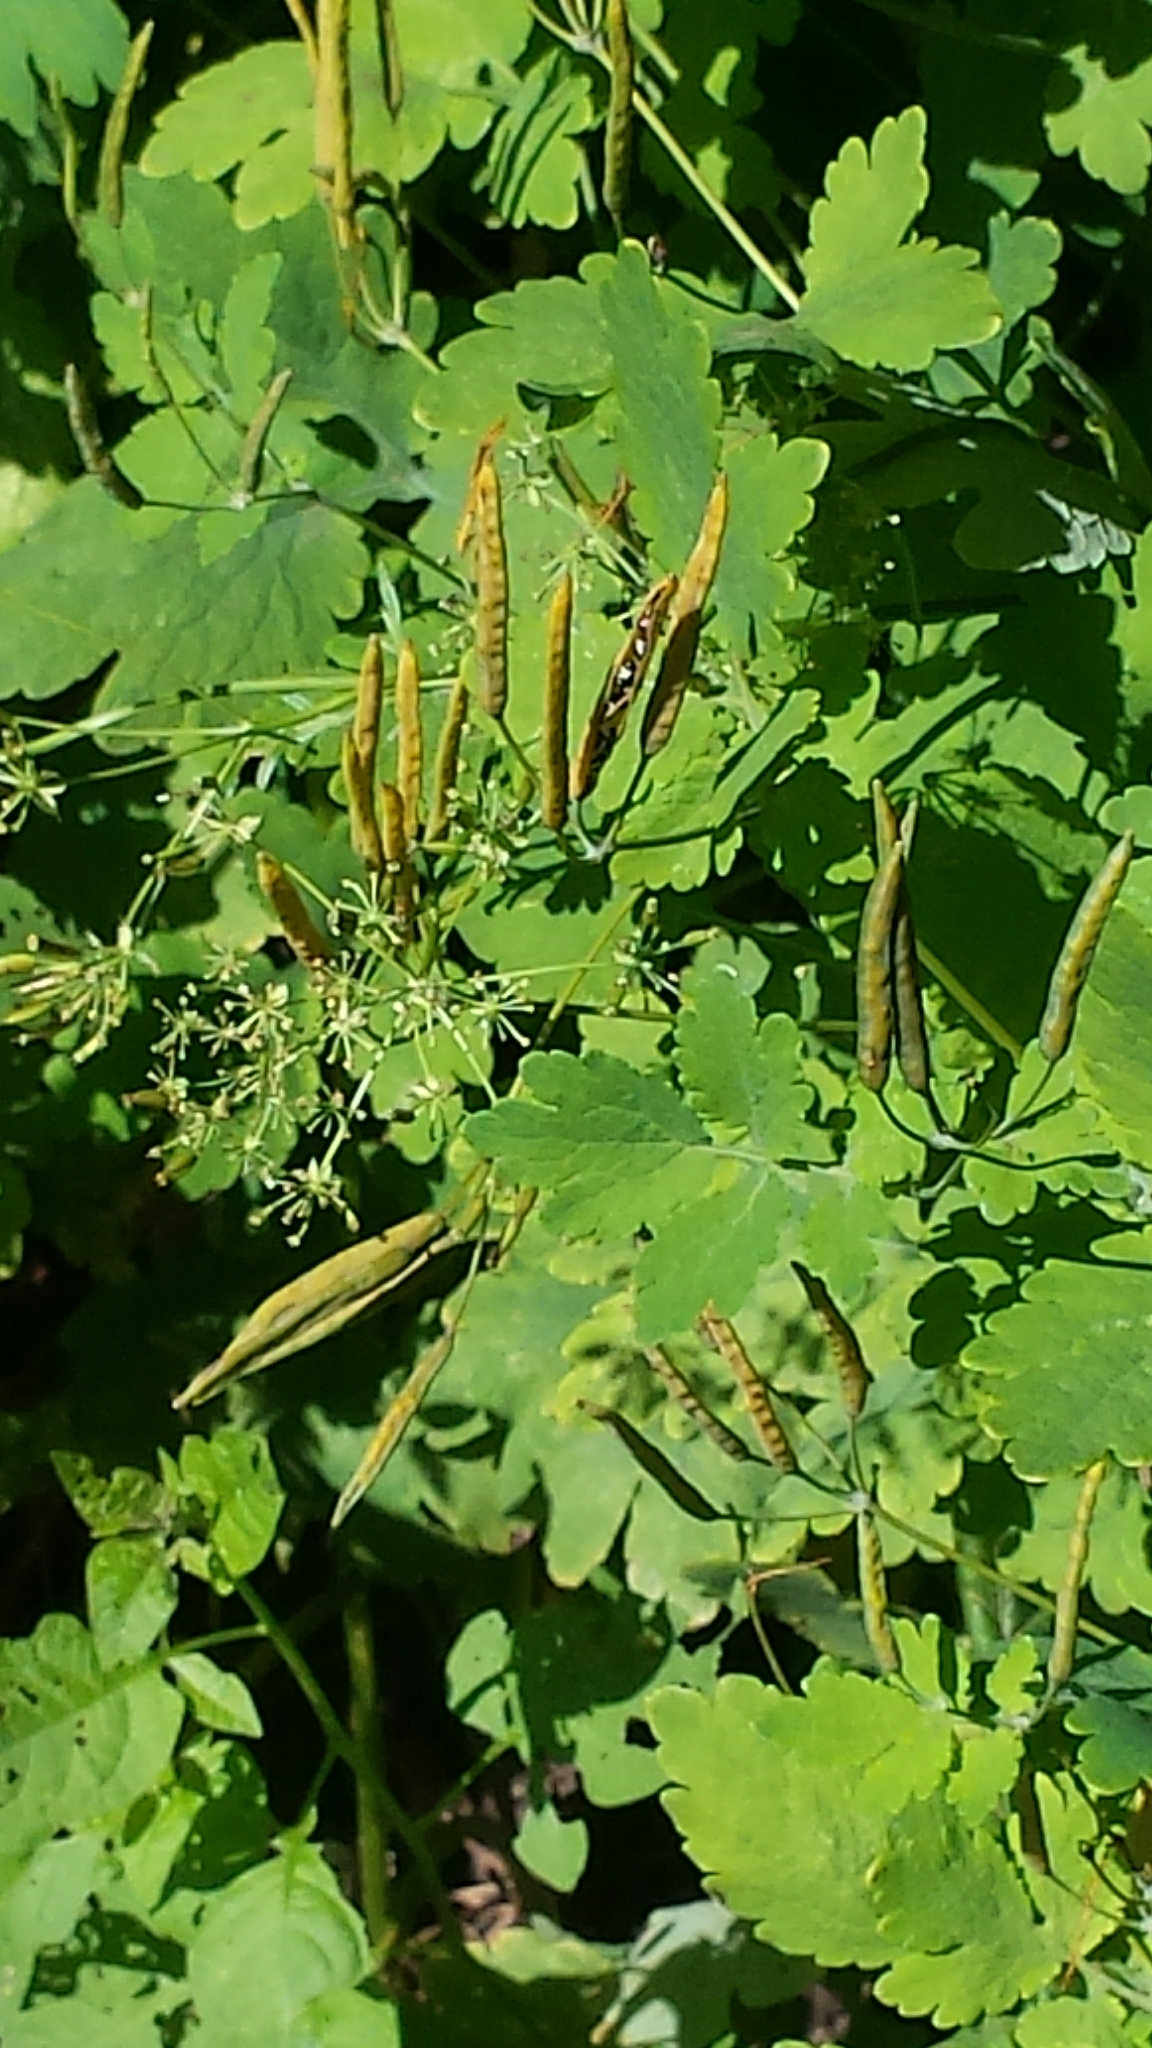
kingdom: Plantae
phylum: Tracheophyta
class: Magnoliopsida
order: Ranunculales
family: Papaveraceae
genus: Chelidonium
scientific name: Chelidonium majus
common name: Greater celandine
